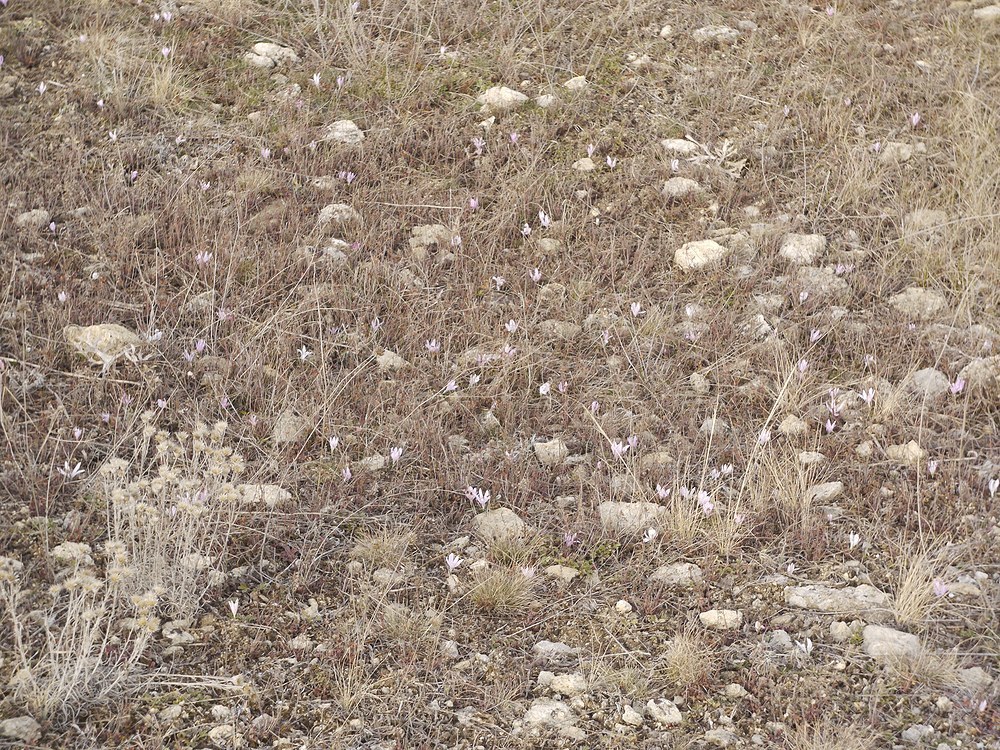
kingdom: Plantae
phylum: Tracheophyta
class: Liliopsida
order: Liliales
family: Colchicaceae
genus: Colchicum
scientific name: Colchicum bulbocodium
